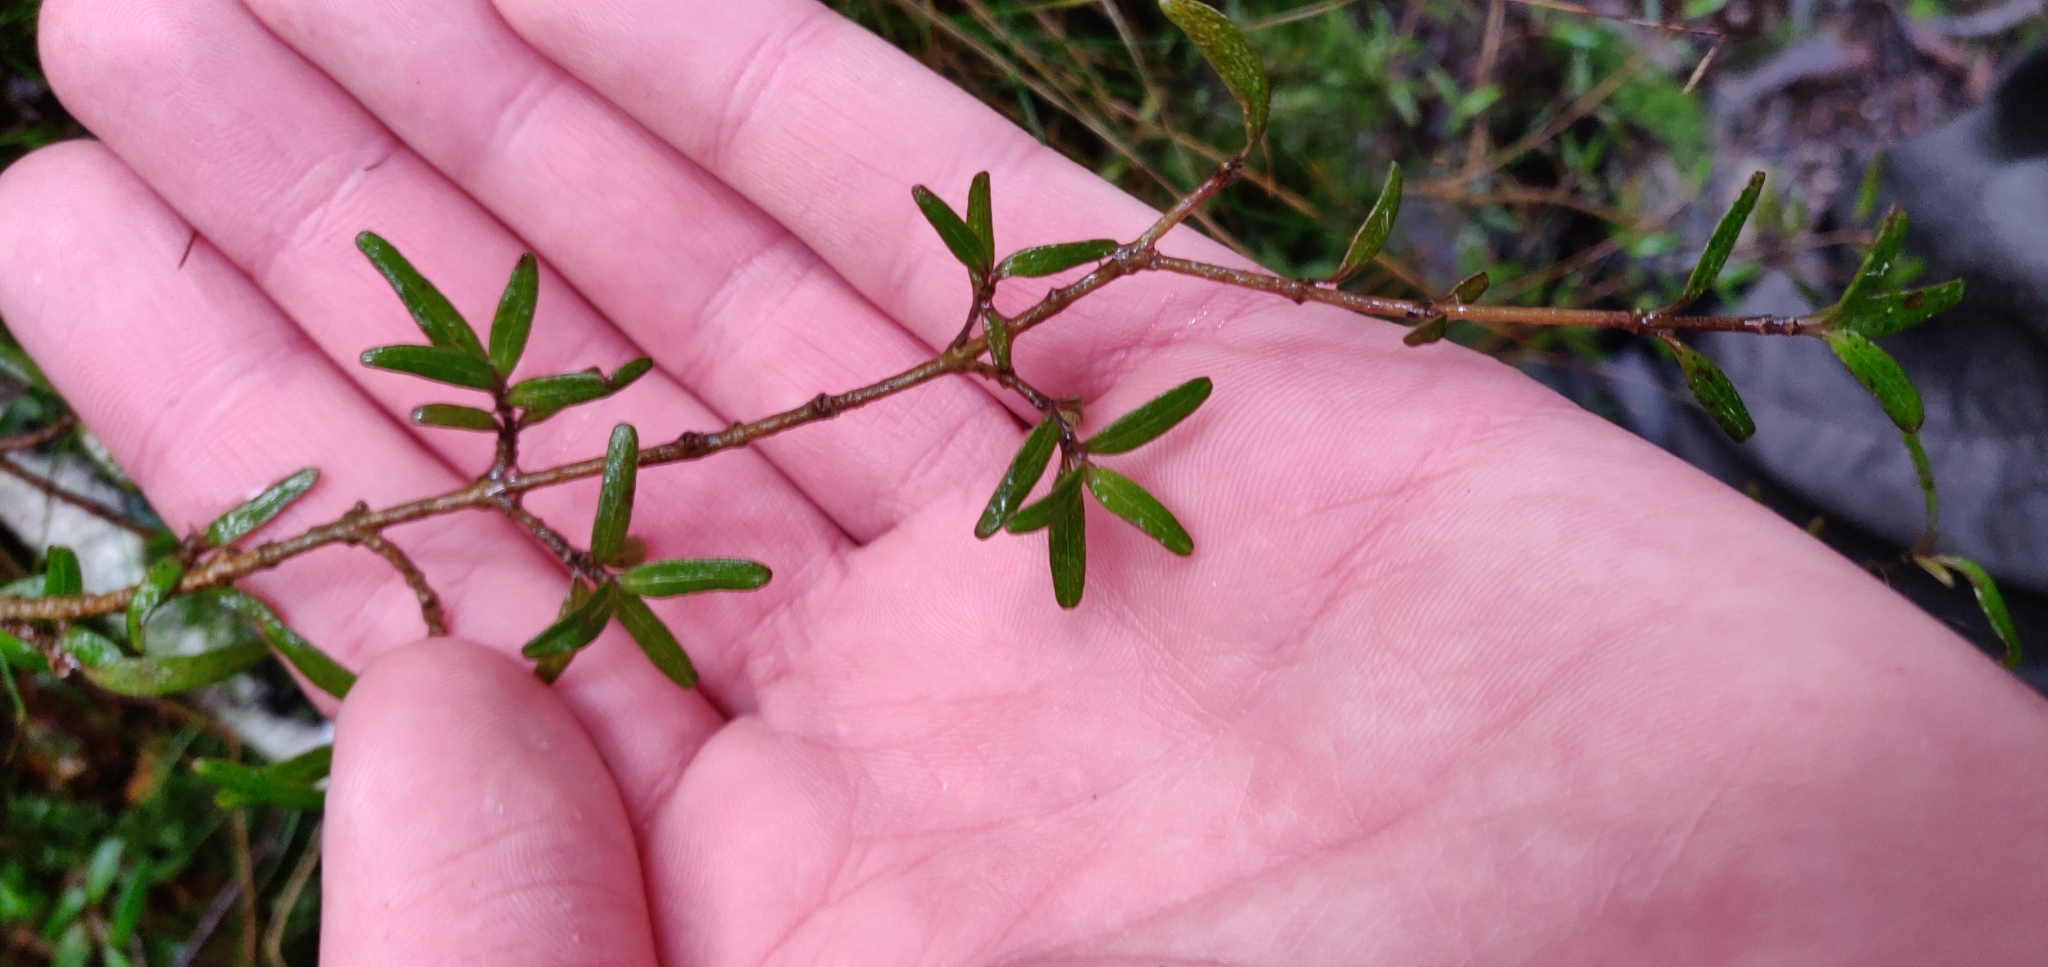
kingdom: Plantae
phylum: Tracheophyta
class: Magnoliopsida
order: Gentianales
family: Rubiaceae
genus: Coprosma
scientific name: Coprosma linariifolia
